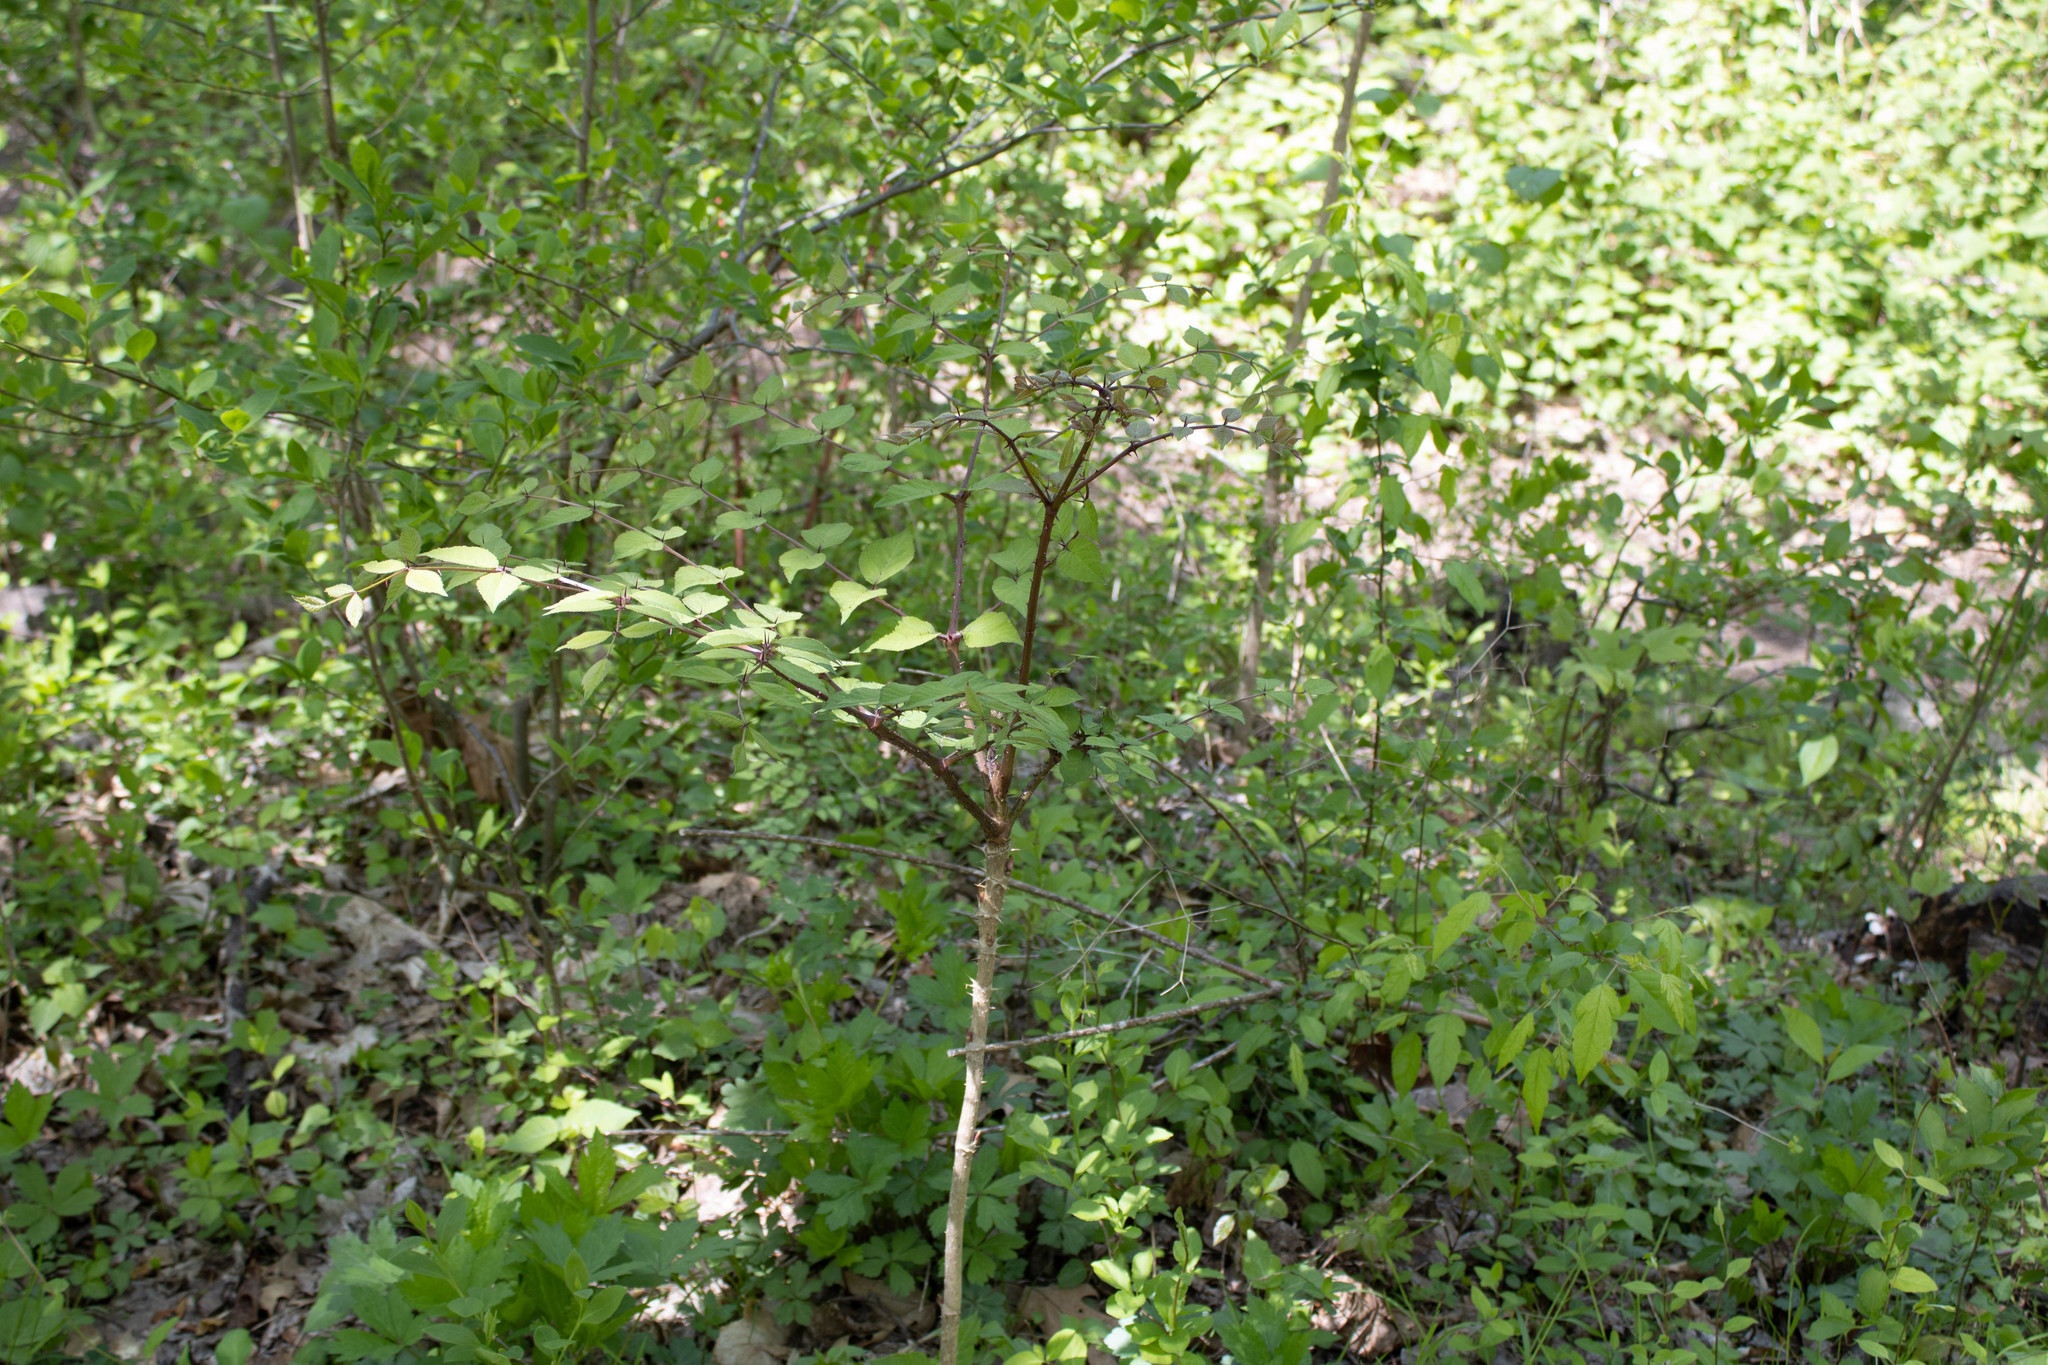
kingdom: Plantae
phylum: Tracheophyta
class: Magnoliopsida
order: Apiales
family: Araliaceae
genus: Aralia
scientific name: Aralia elata
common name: Japanese angelica-tree
